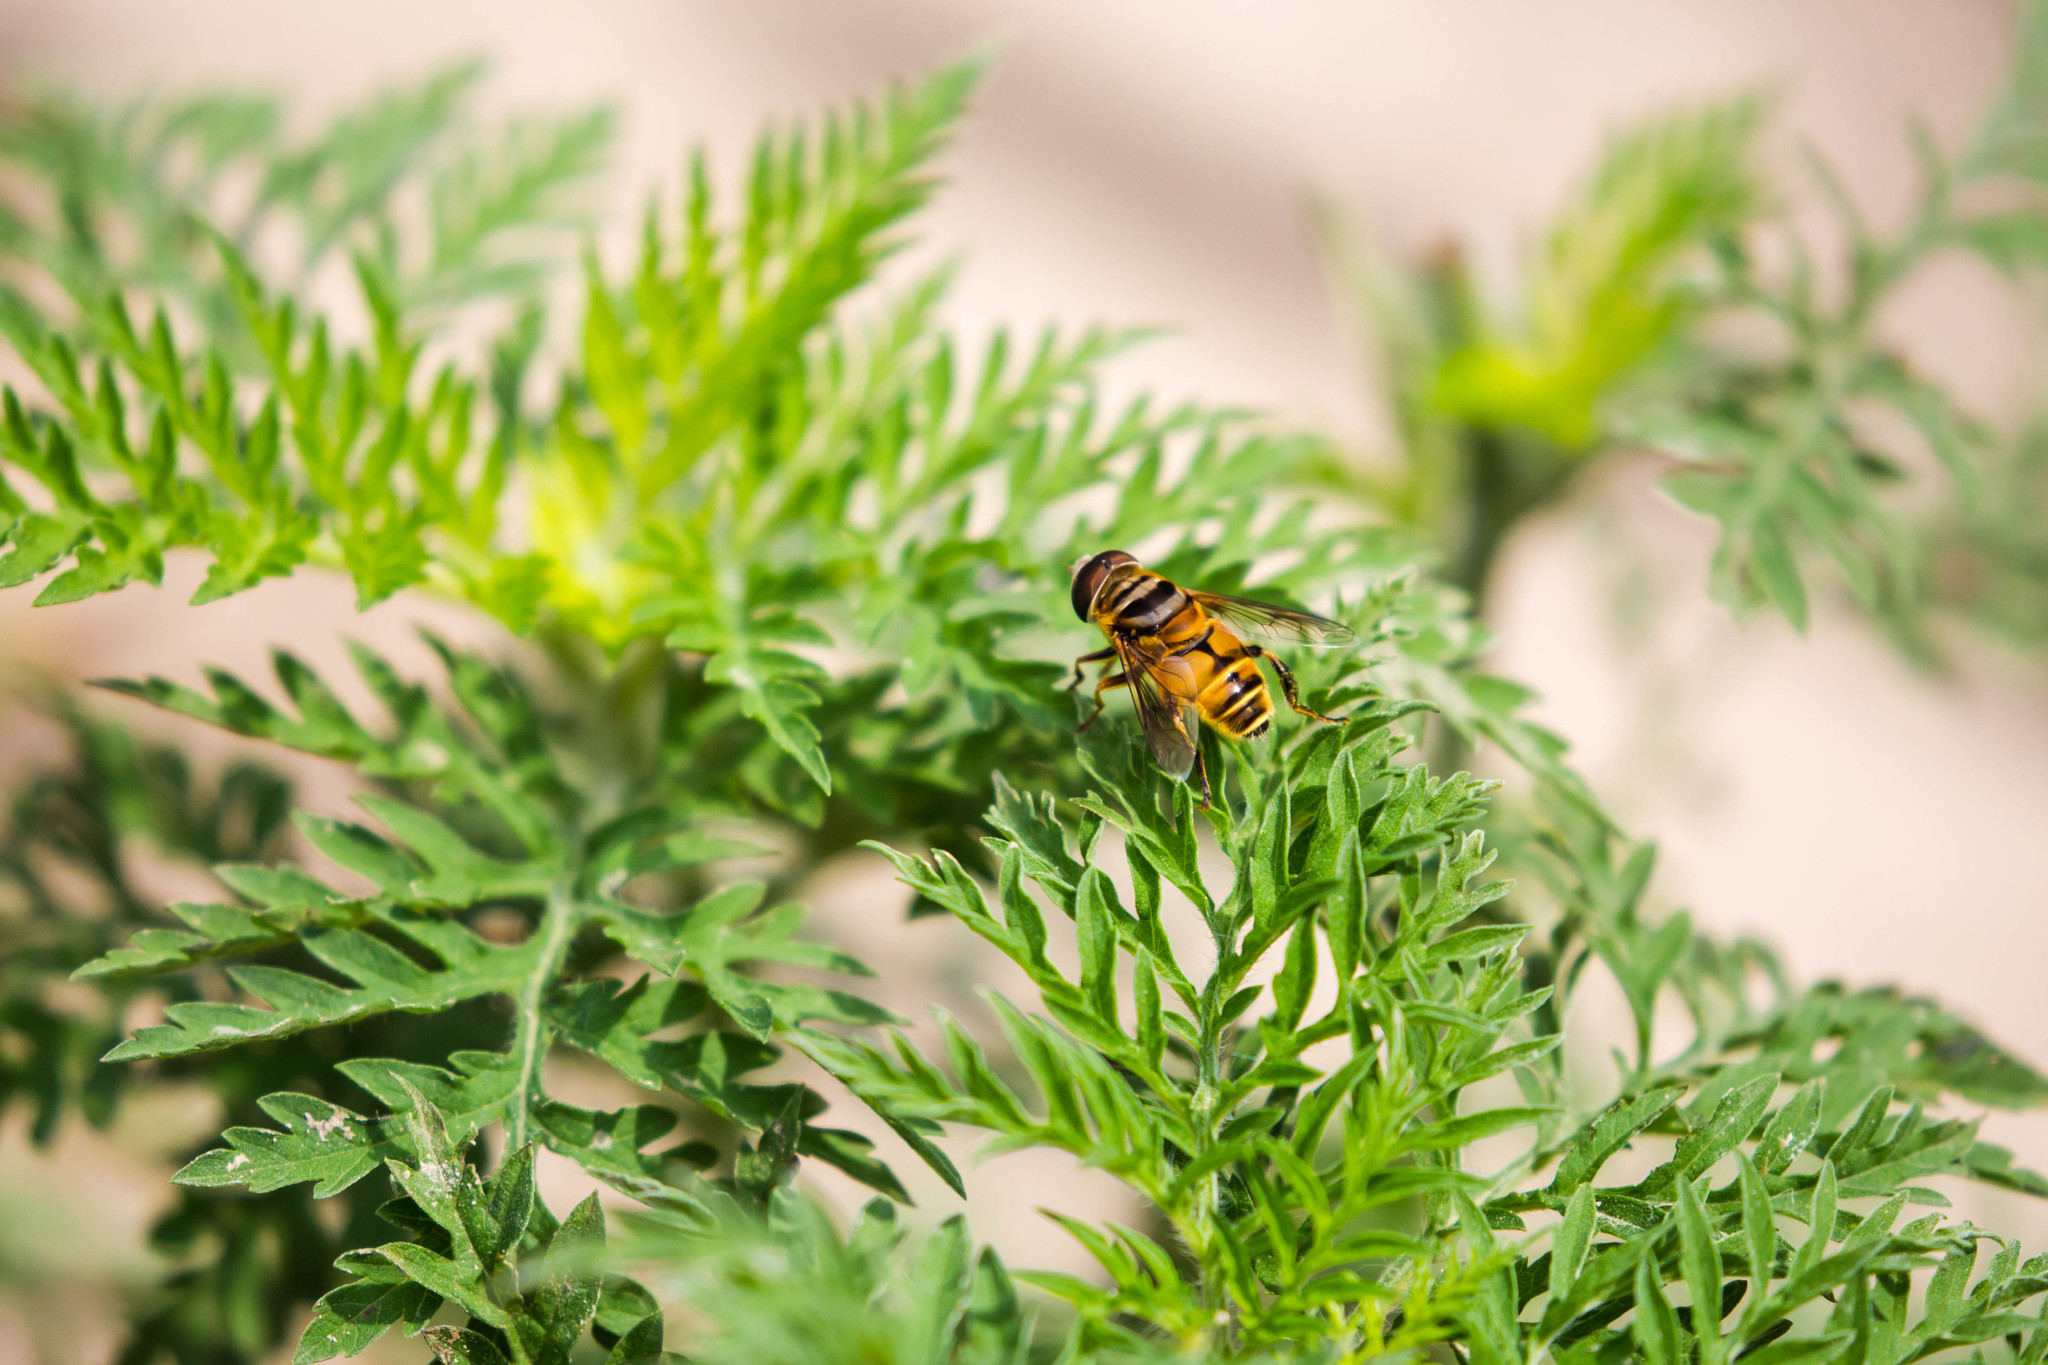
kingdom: Animalia
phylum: Arthropoda
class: Insecta
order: Diptera
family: Syrphidae
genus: Palpada
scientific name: Palpada vinetorum
